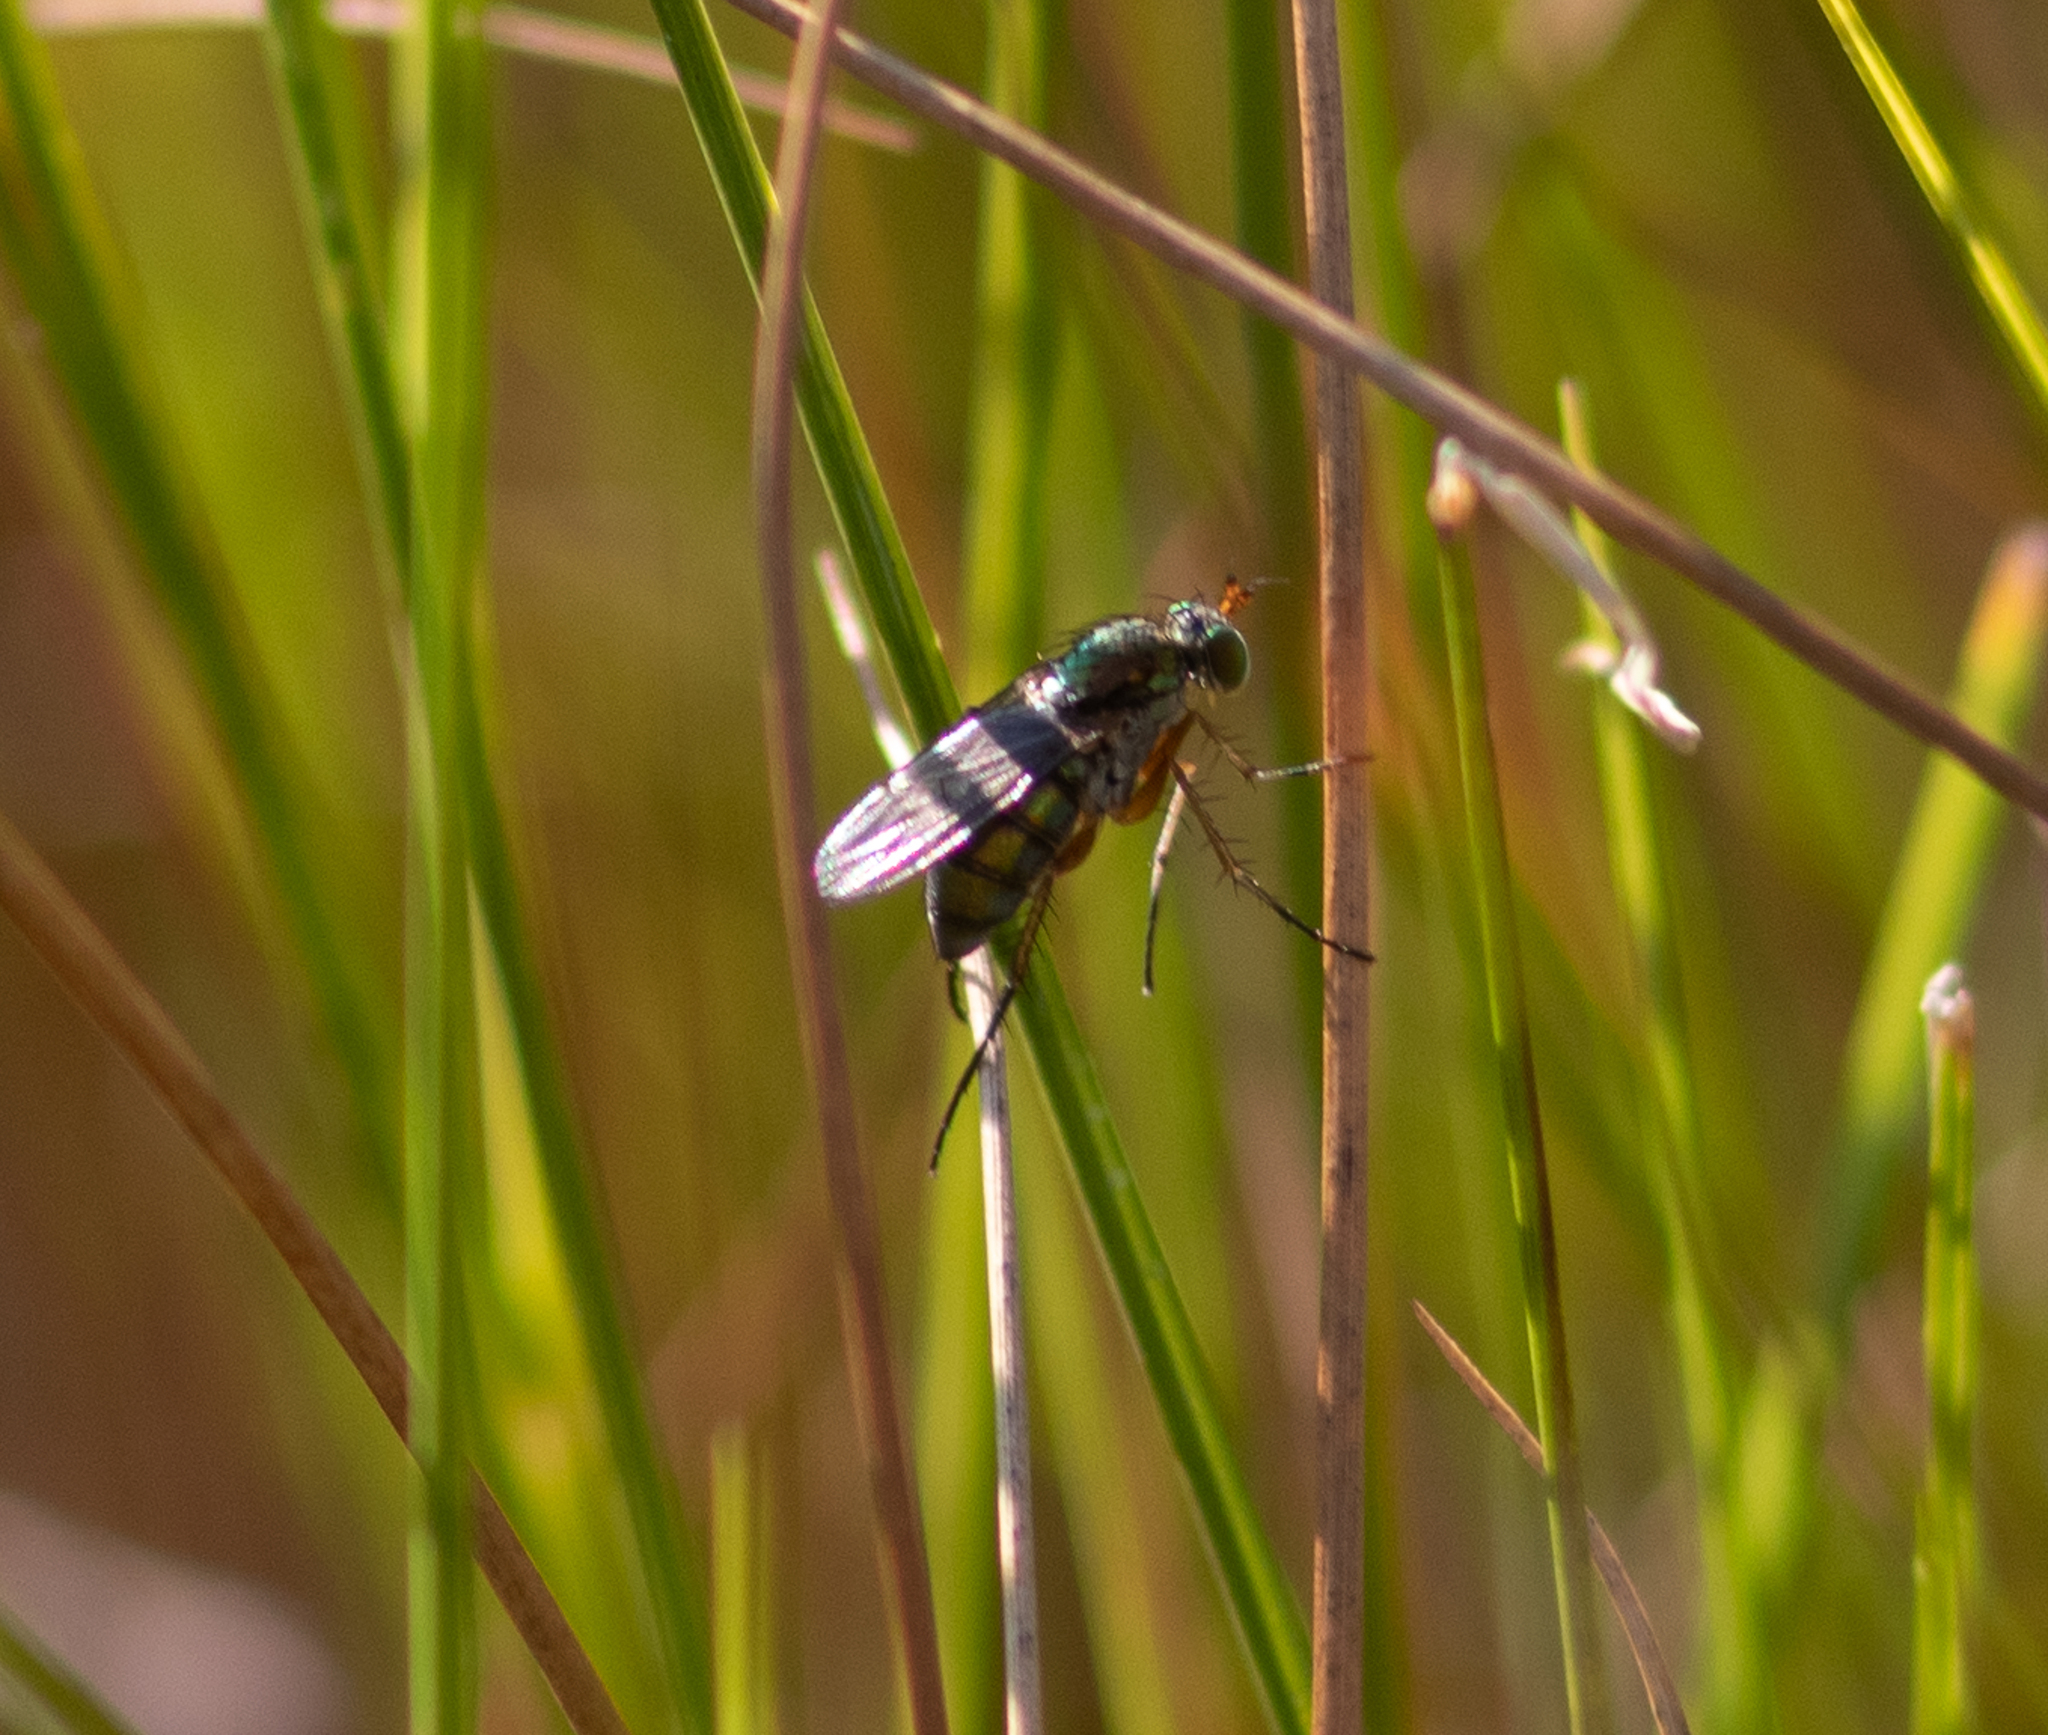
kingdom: Animalia
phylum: Arthropoda
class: Insecta
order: Diptera
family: Dolichopodidae
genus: Dolichopus
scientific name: Dolichopus
